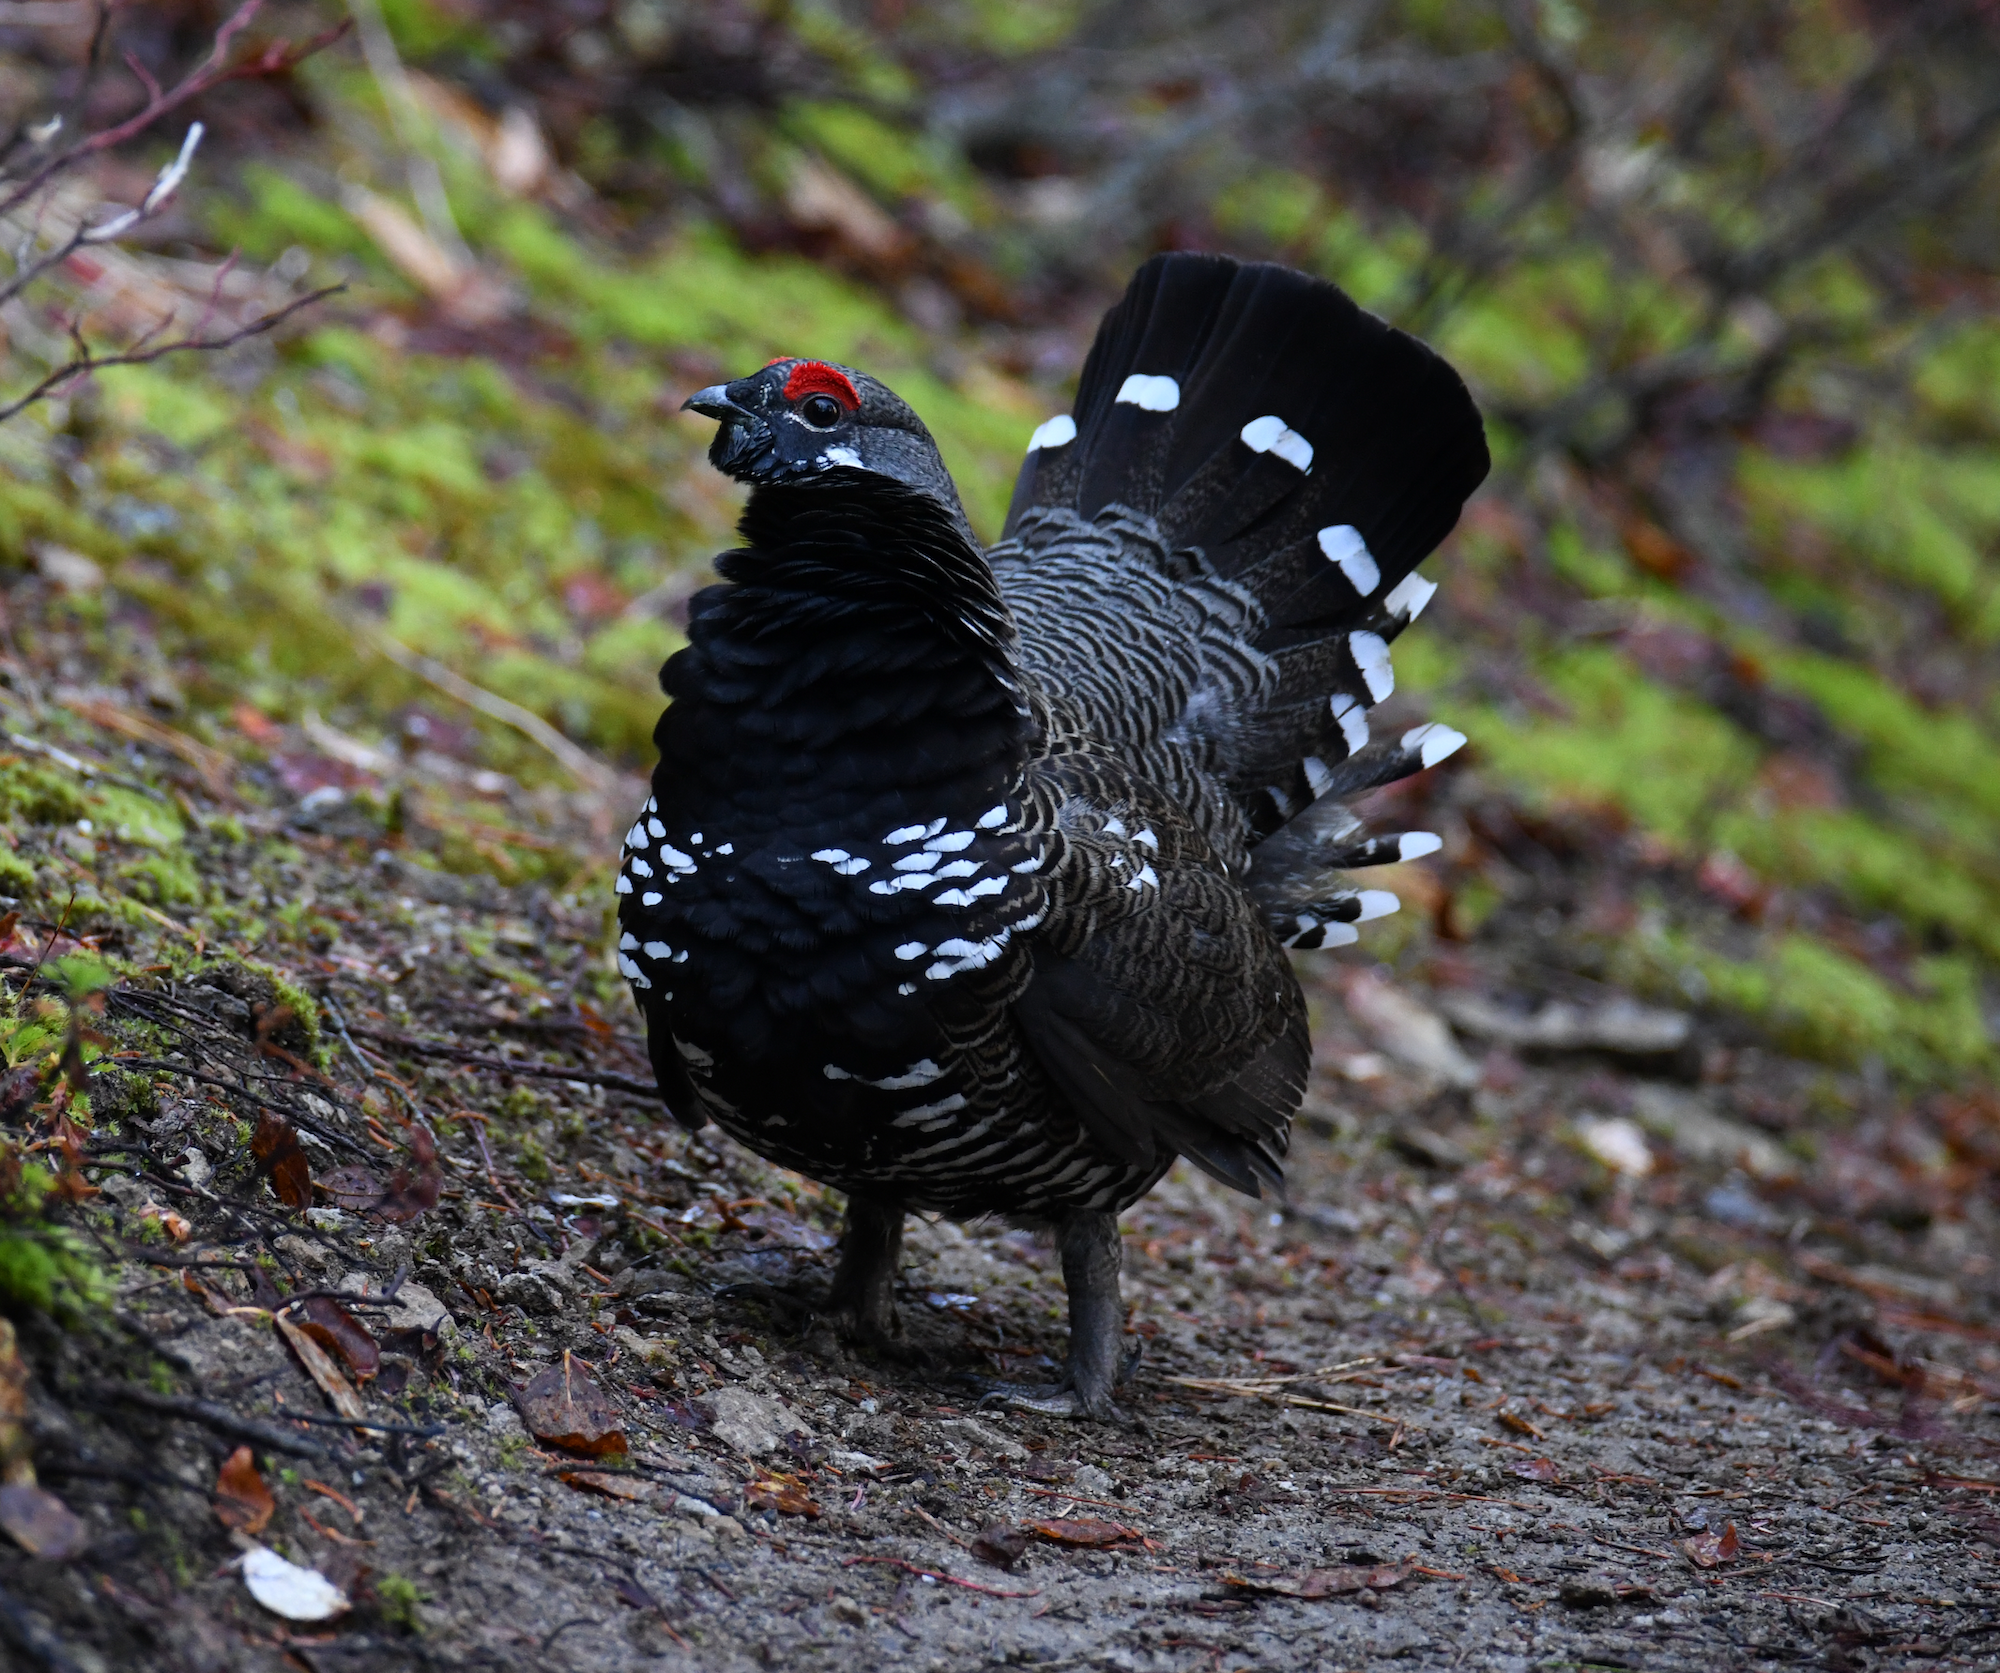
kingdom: Animalia
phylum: Chordata
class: Aves
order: Galliformes
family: Phasianidae
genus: Canachites
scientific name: Canachites canadensis
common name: Spruce grouse
